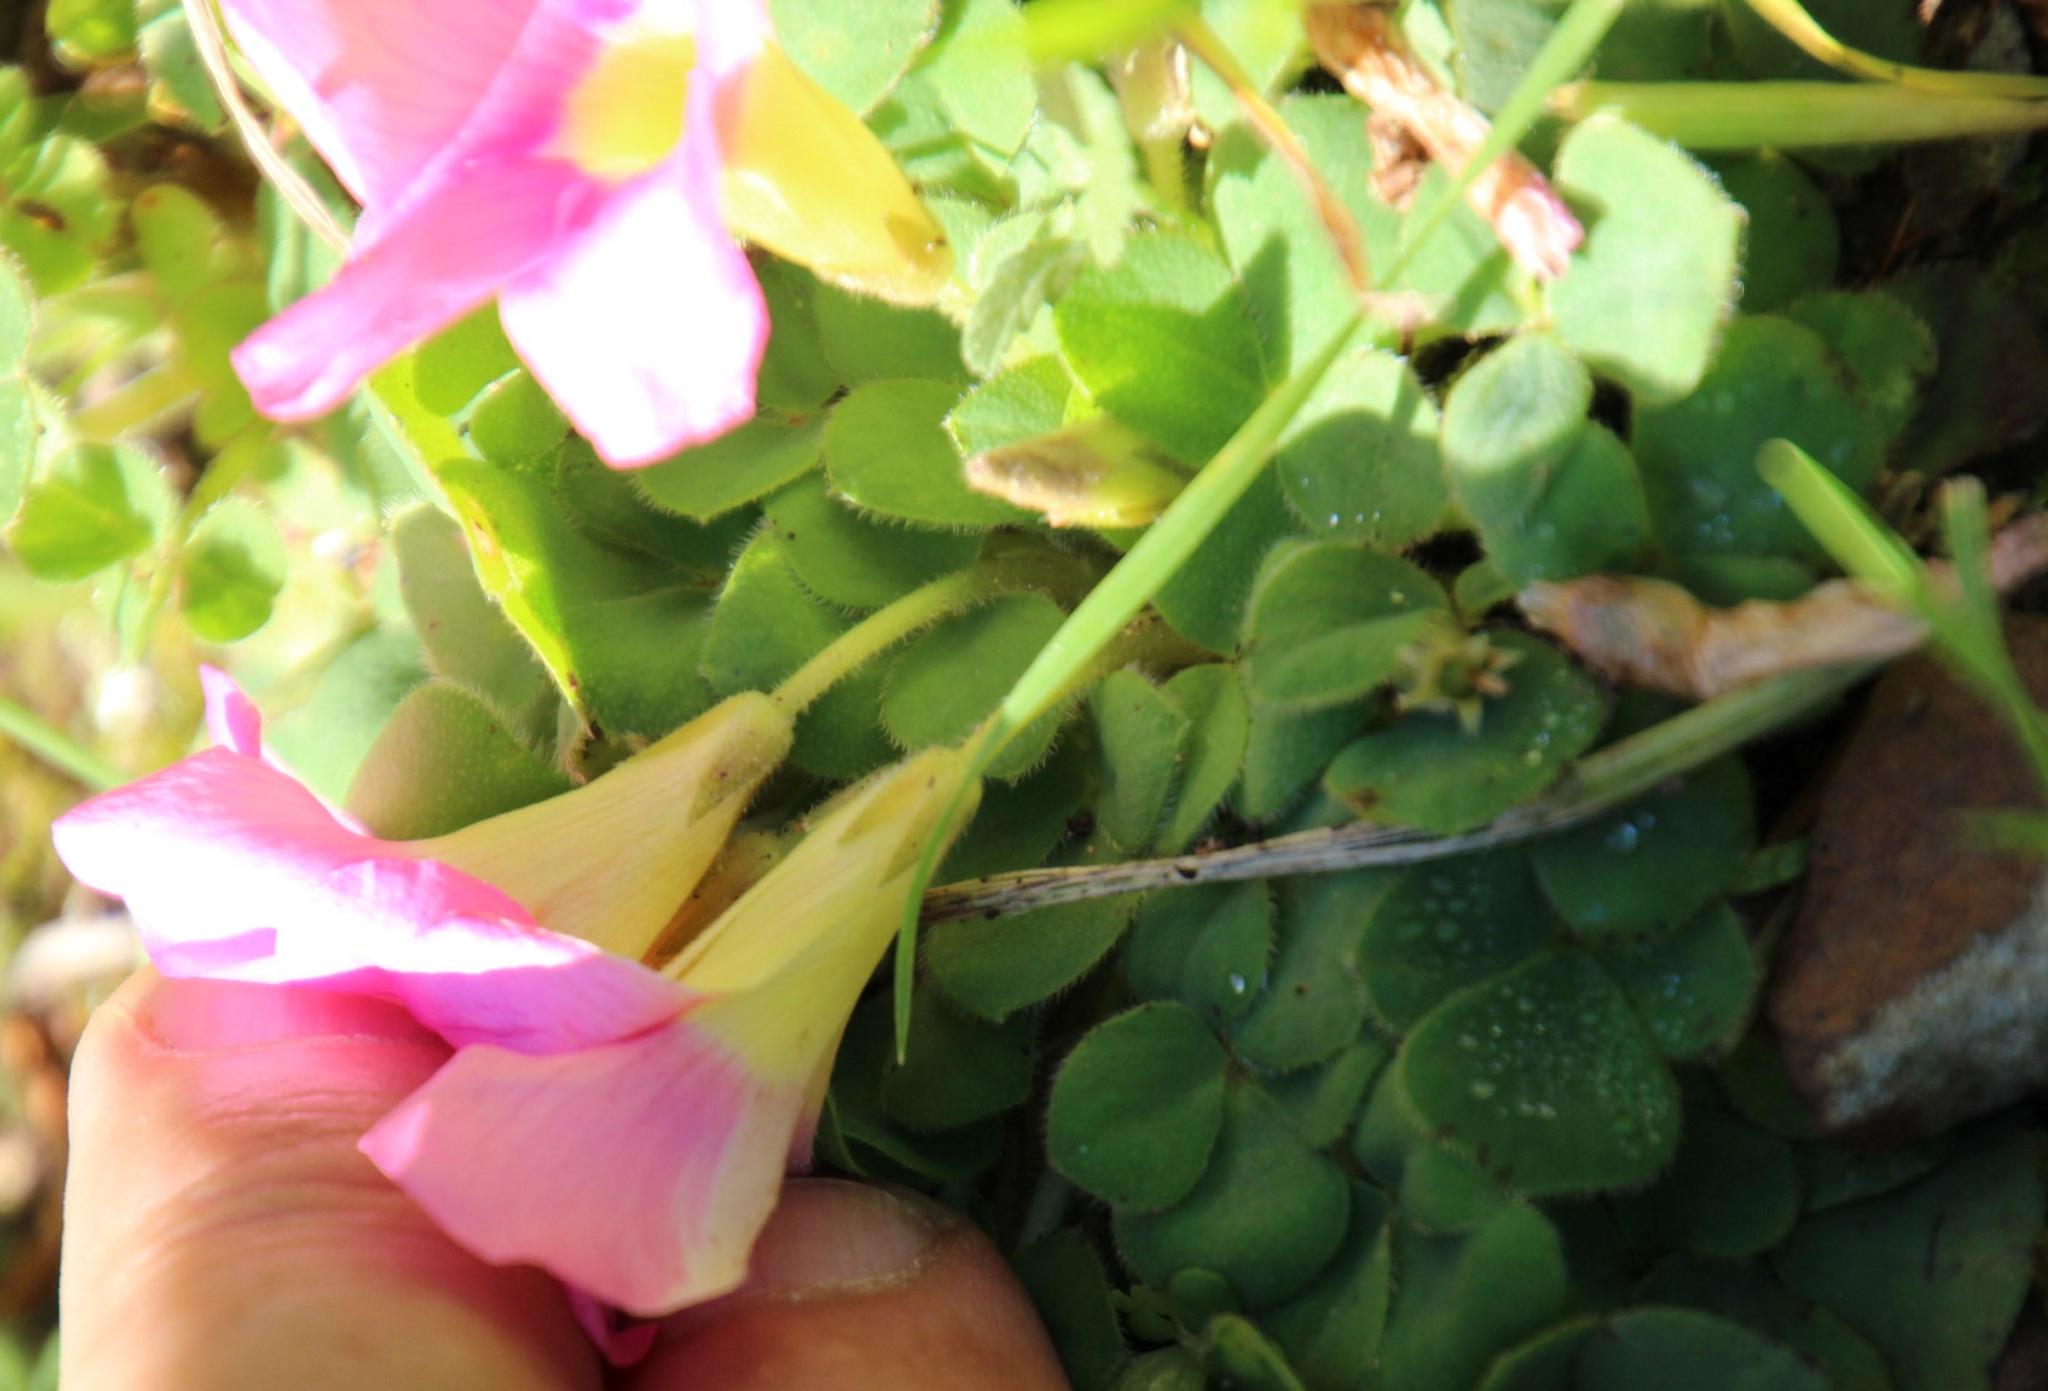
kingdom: Plantae
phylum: Tracheophyta
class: Magnoliopsida
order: Oxalidales
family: Oxalidaceae
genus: Oxalis
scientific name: Oxalis purpurea
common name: Purple woodsorrel
